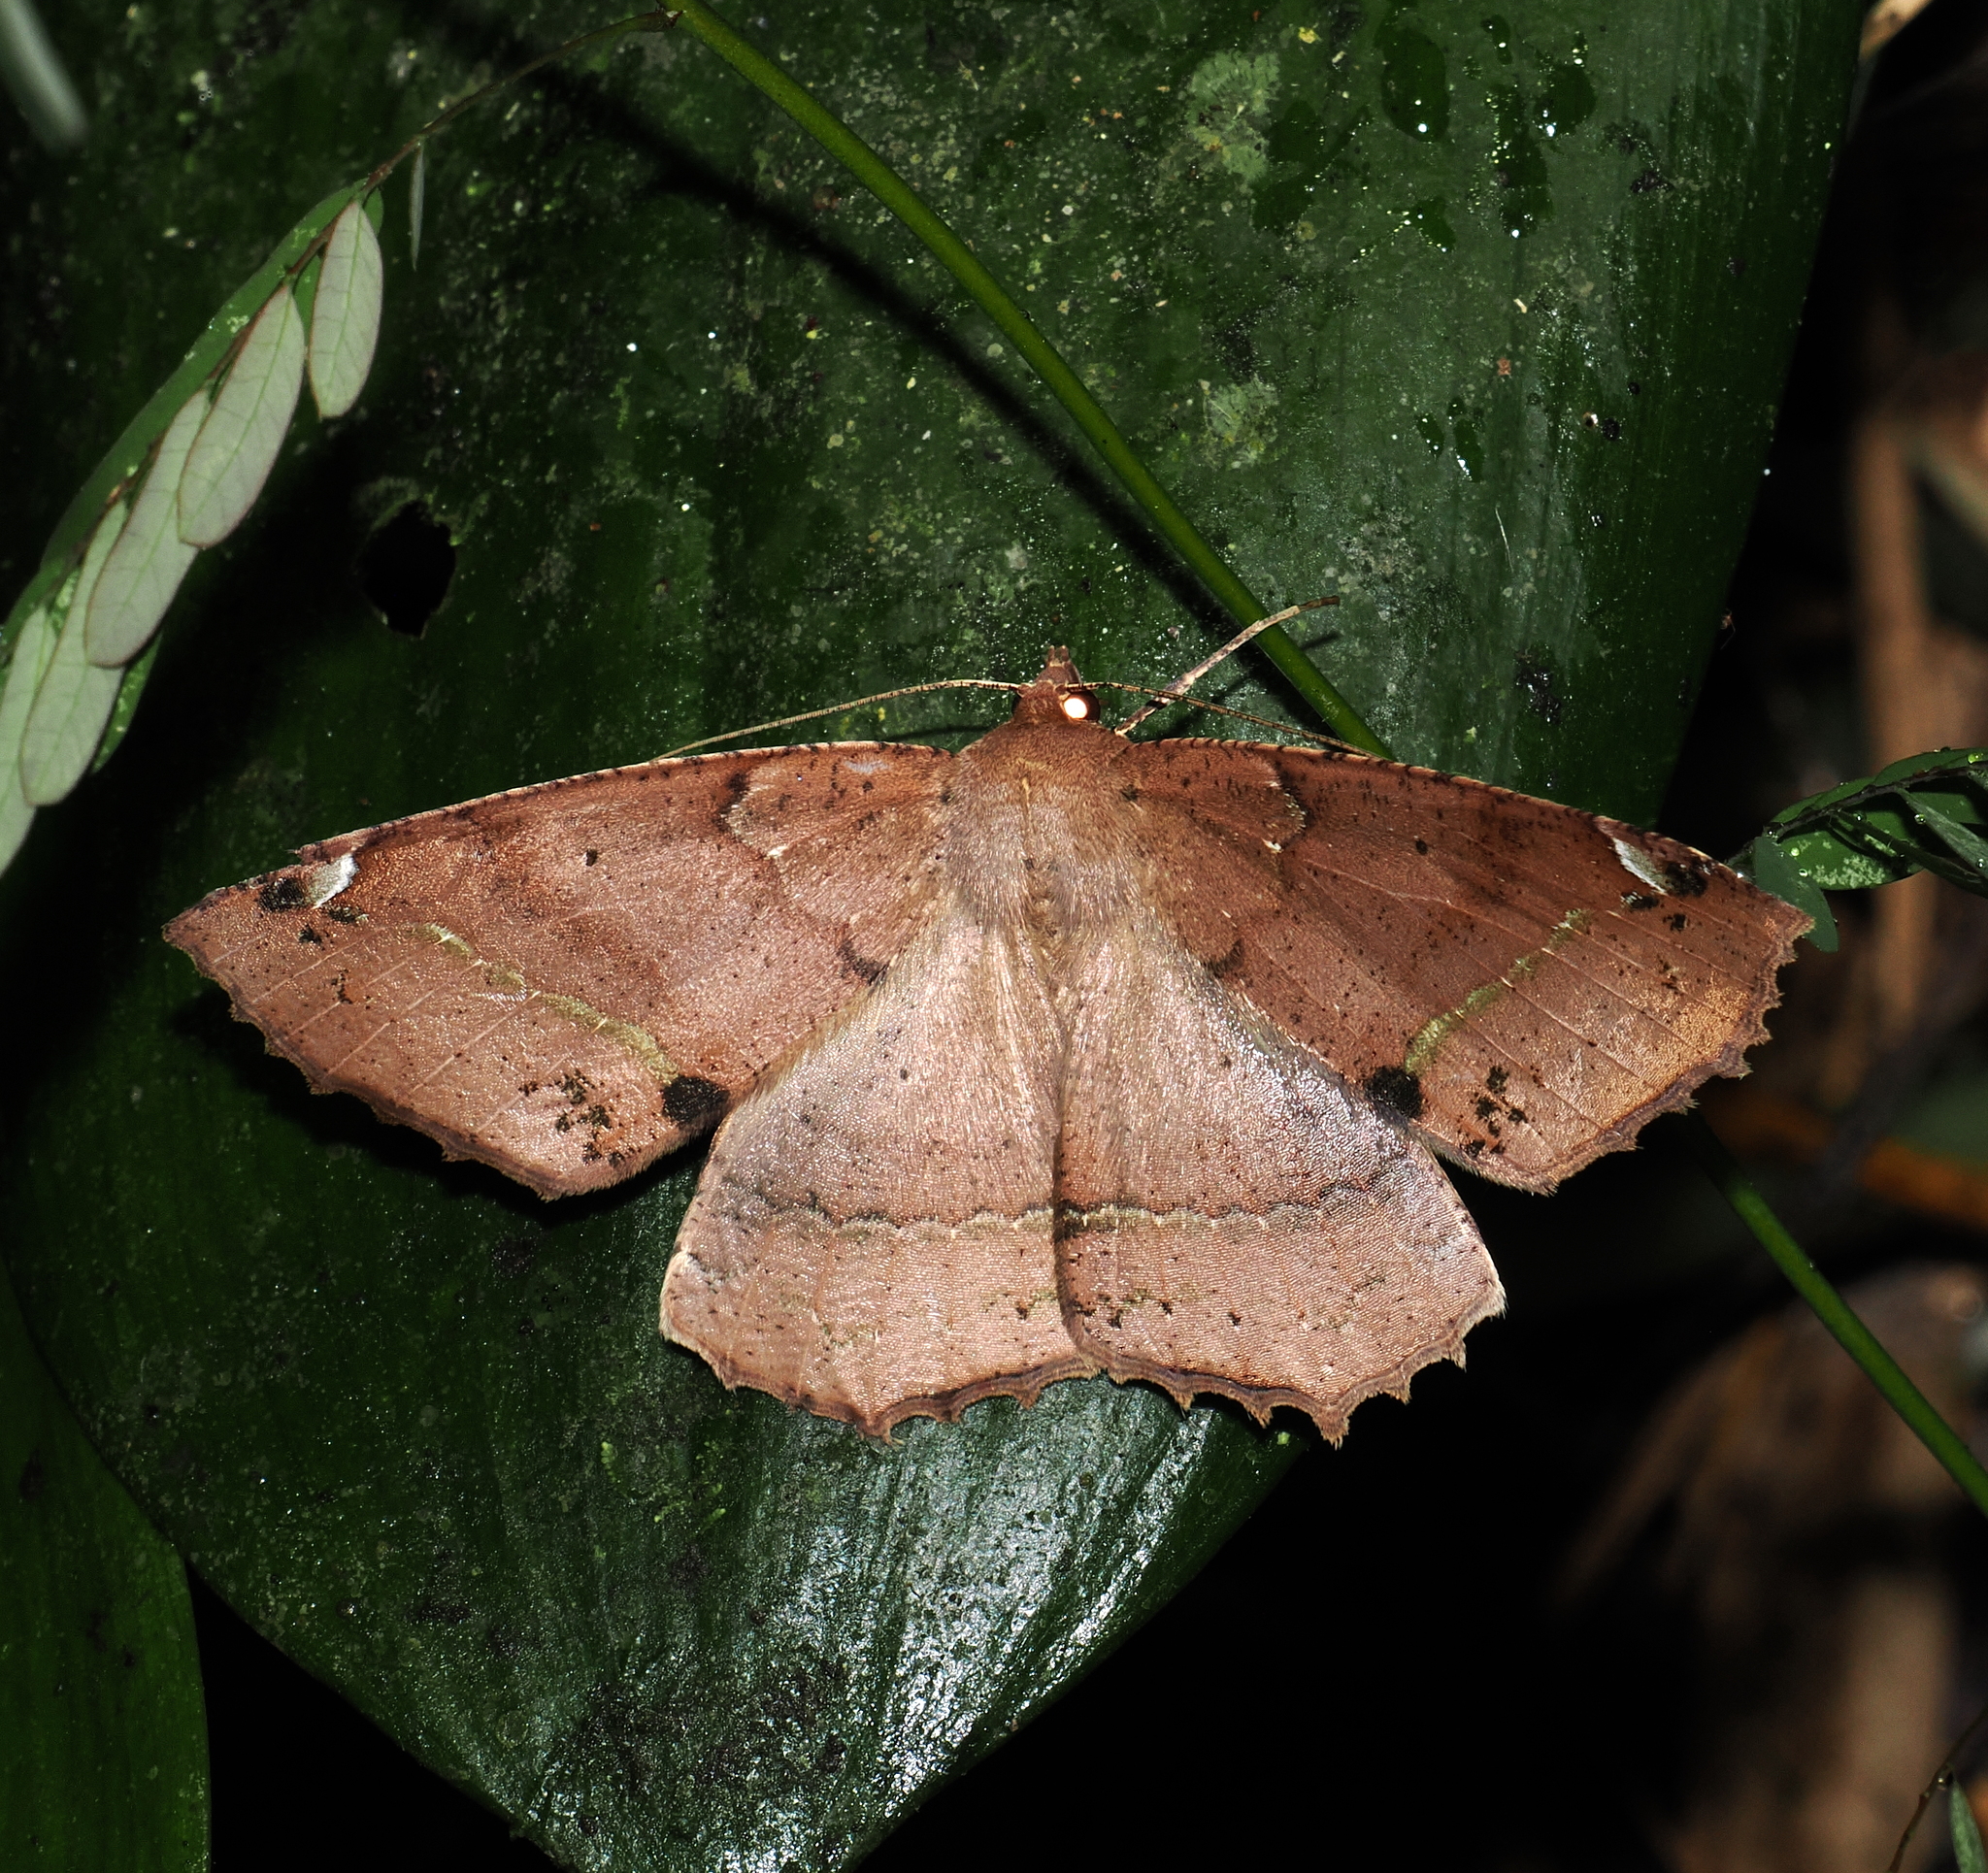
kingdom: Animalia
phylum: Arthropoda
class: Insecta
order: Lepidoptera
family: Geometridae
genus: Bonatea
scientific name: Bonatea duciata
